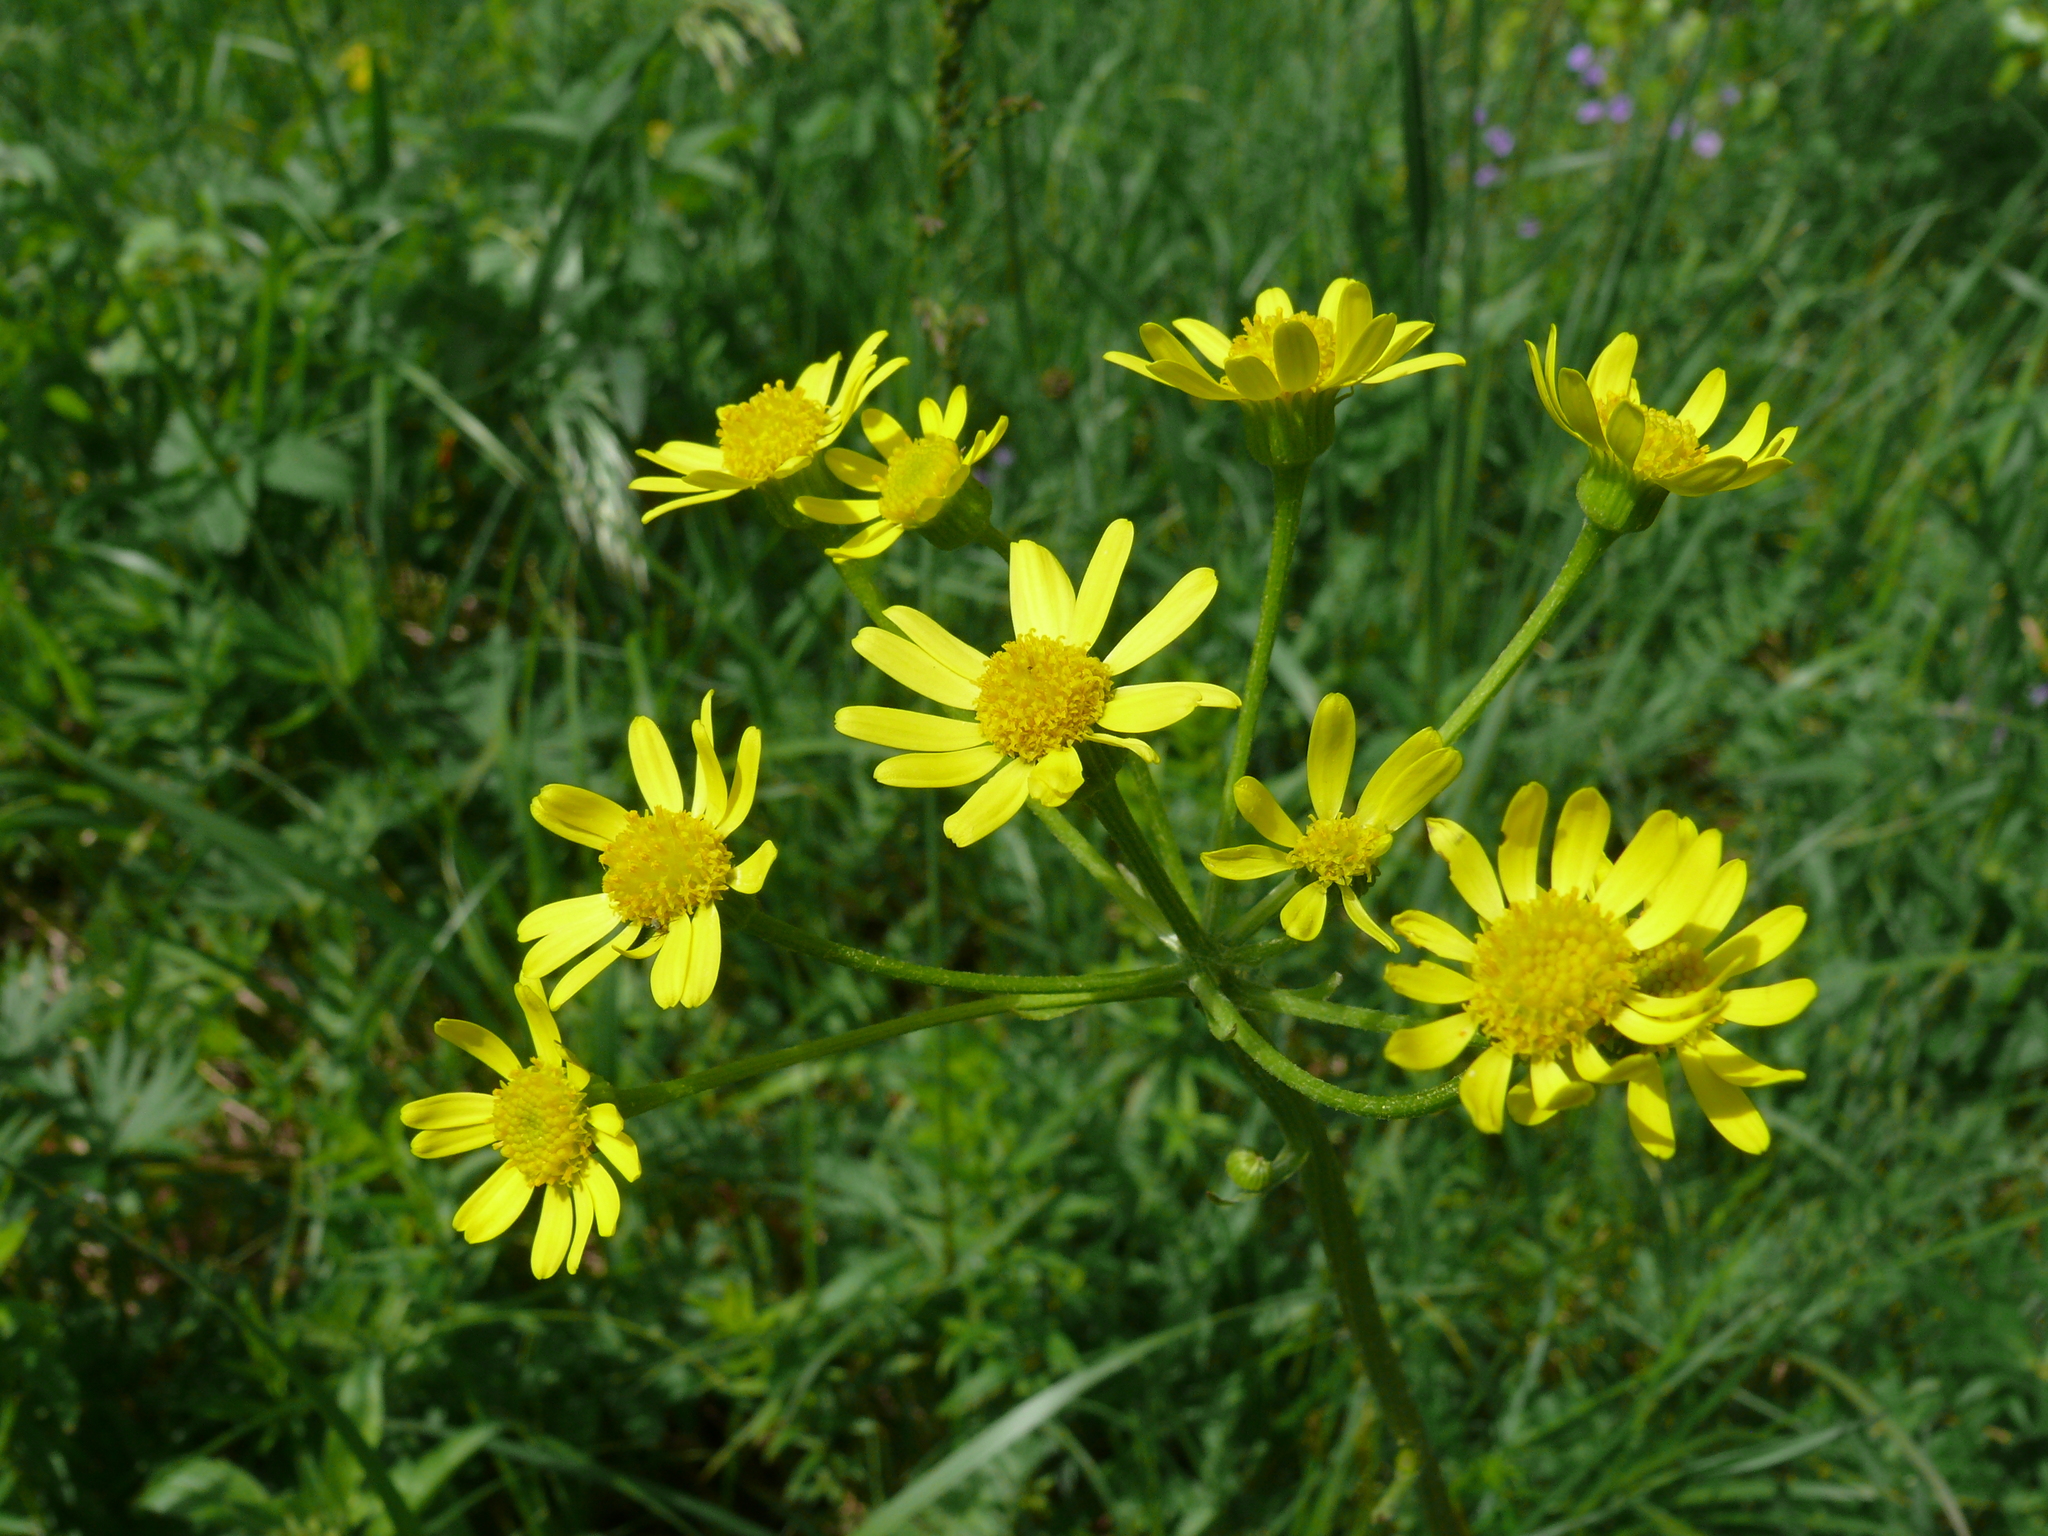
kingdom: Plantae
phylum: Tracheophyta
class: Magnoliopsida
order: Asterales
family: Asteraceae
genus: Tephroseris
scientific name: Tephroseris integrifolia
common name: Field fleawort
